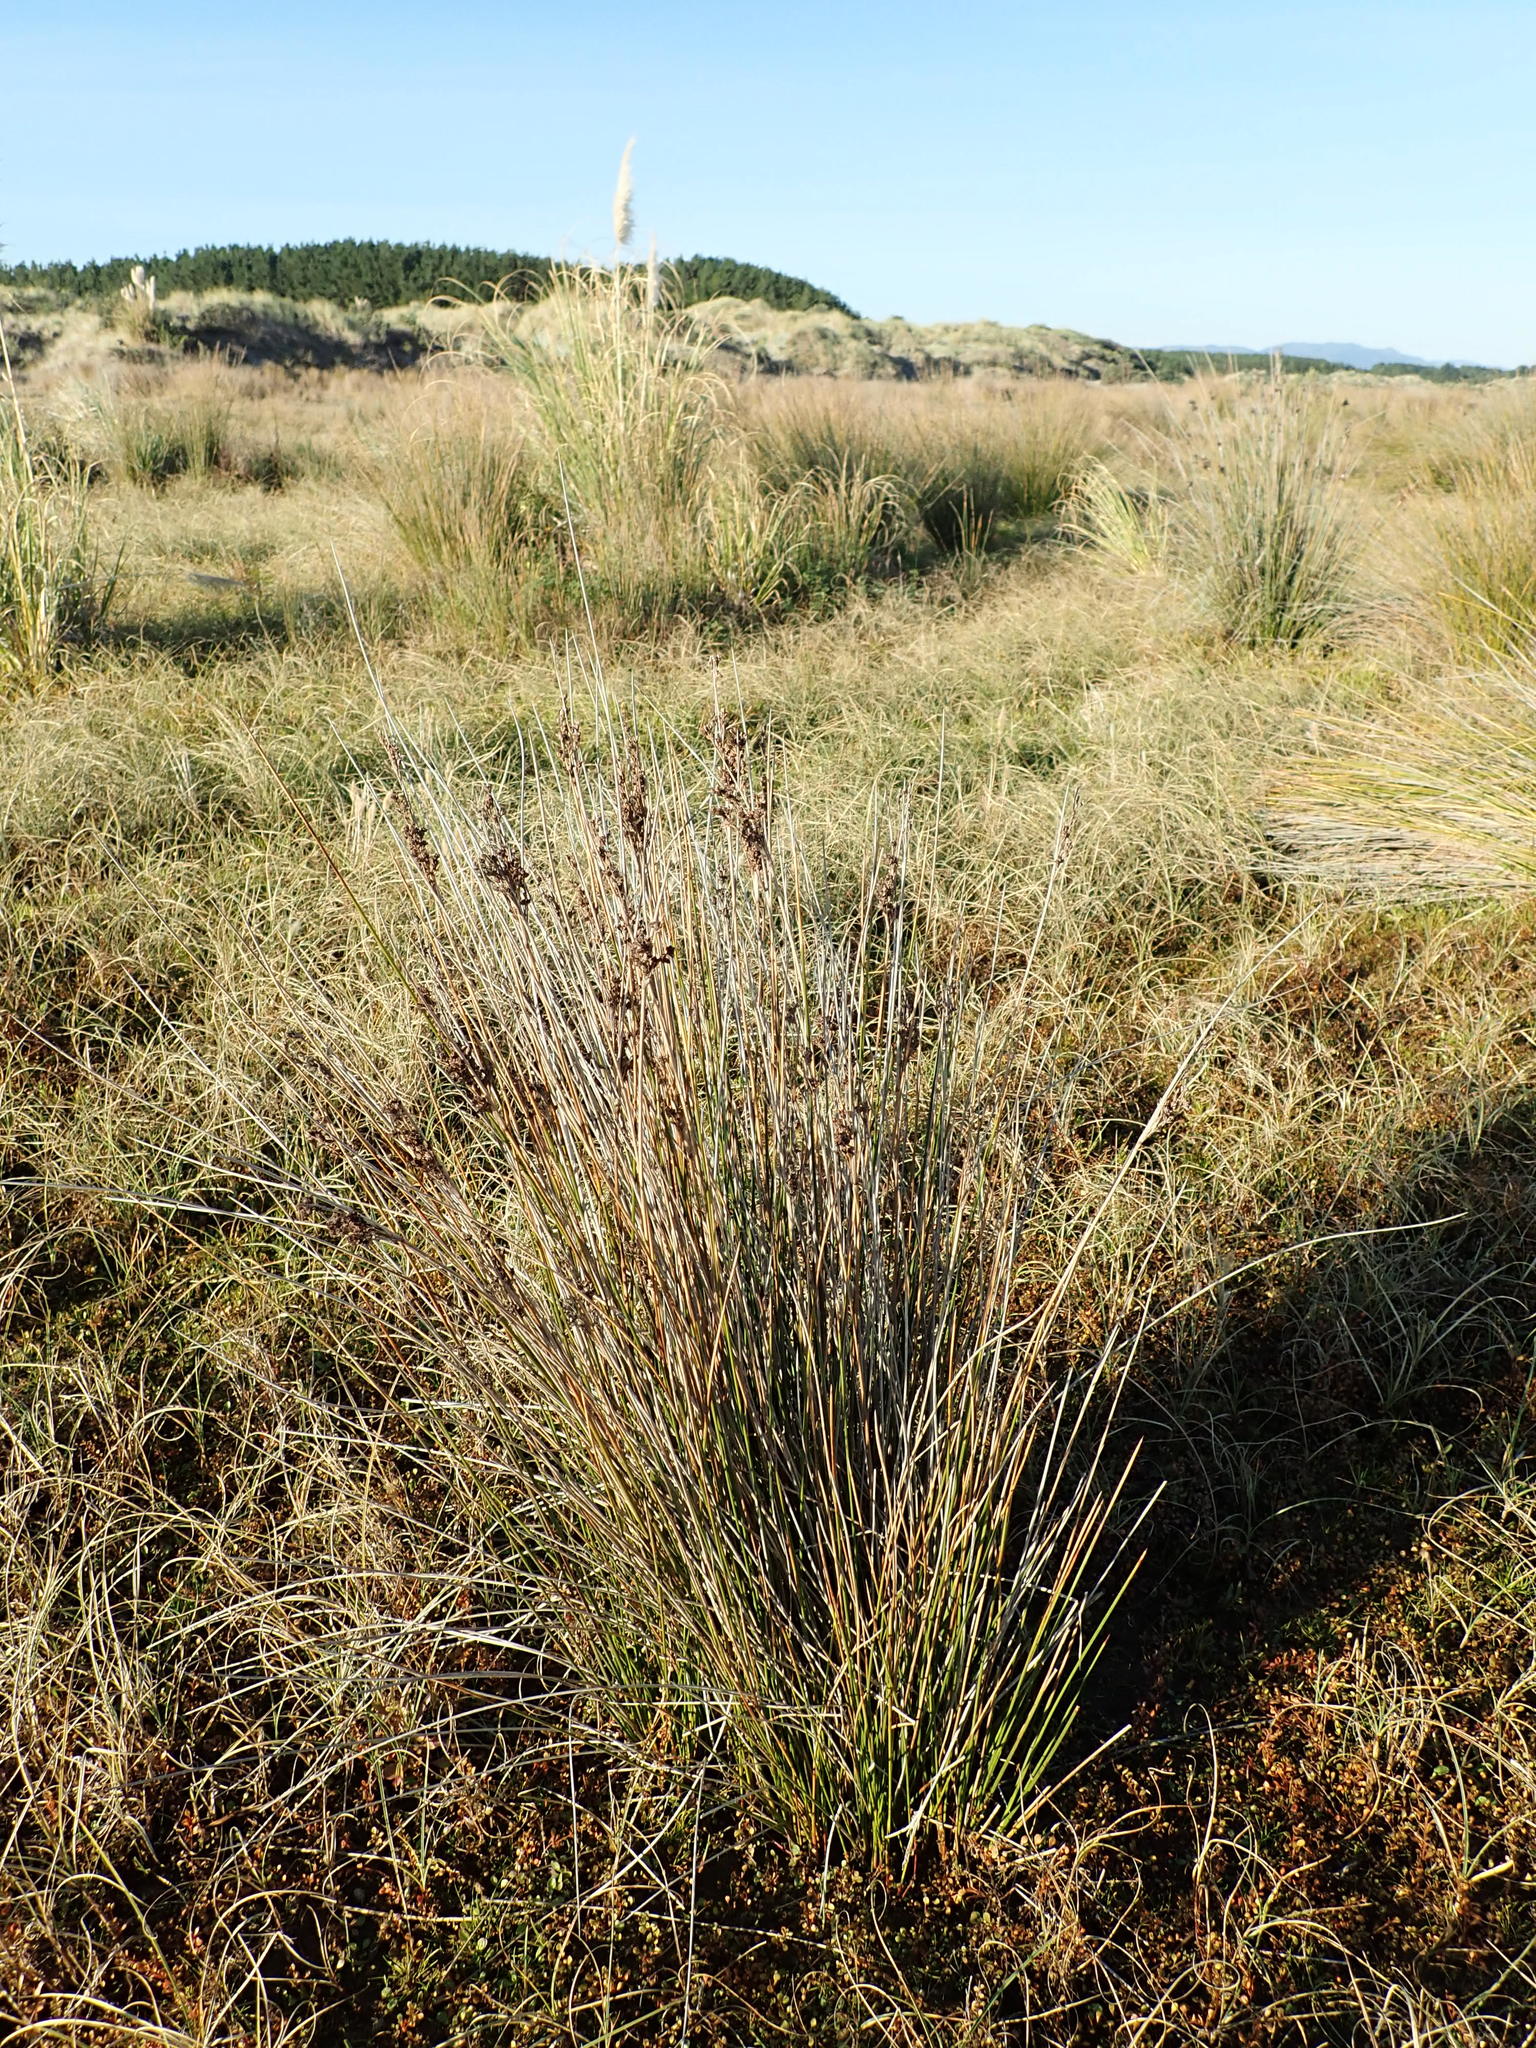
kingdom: Plantae
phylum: Tracheophyta
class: Liliopsida
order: Poales
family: Juncaceae
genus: Juncus
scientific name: Juncus kraussii
